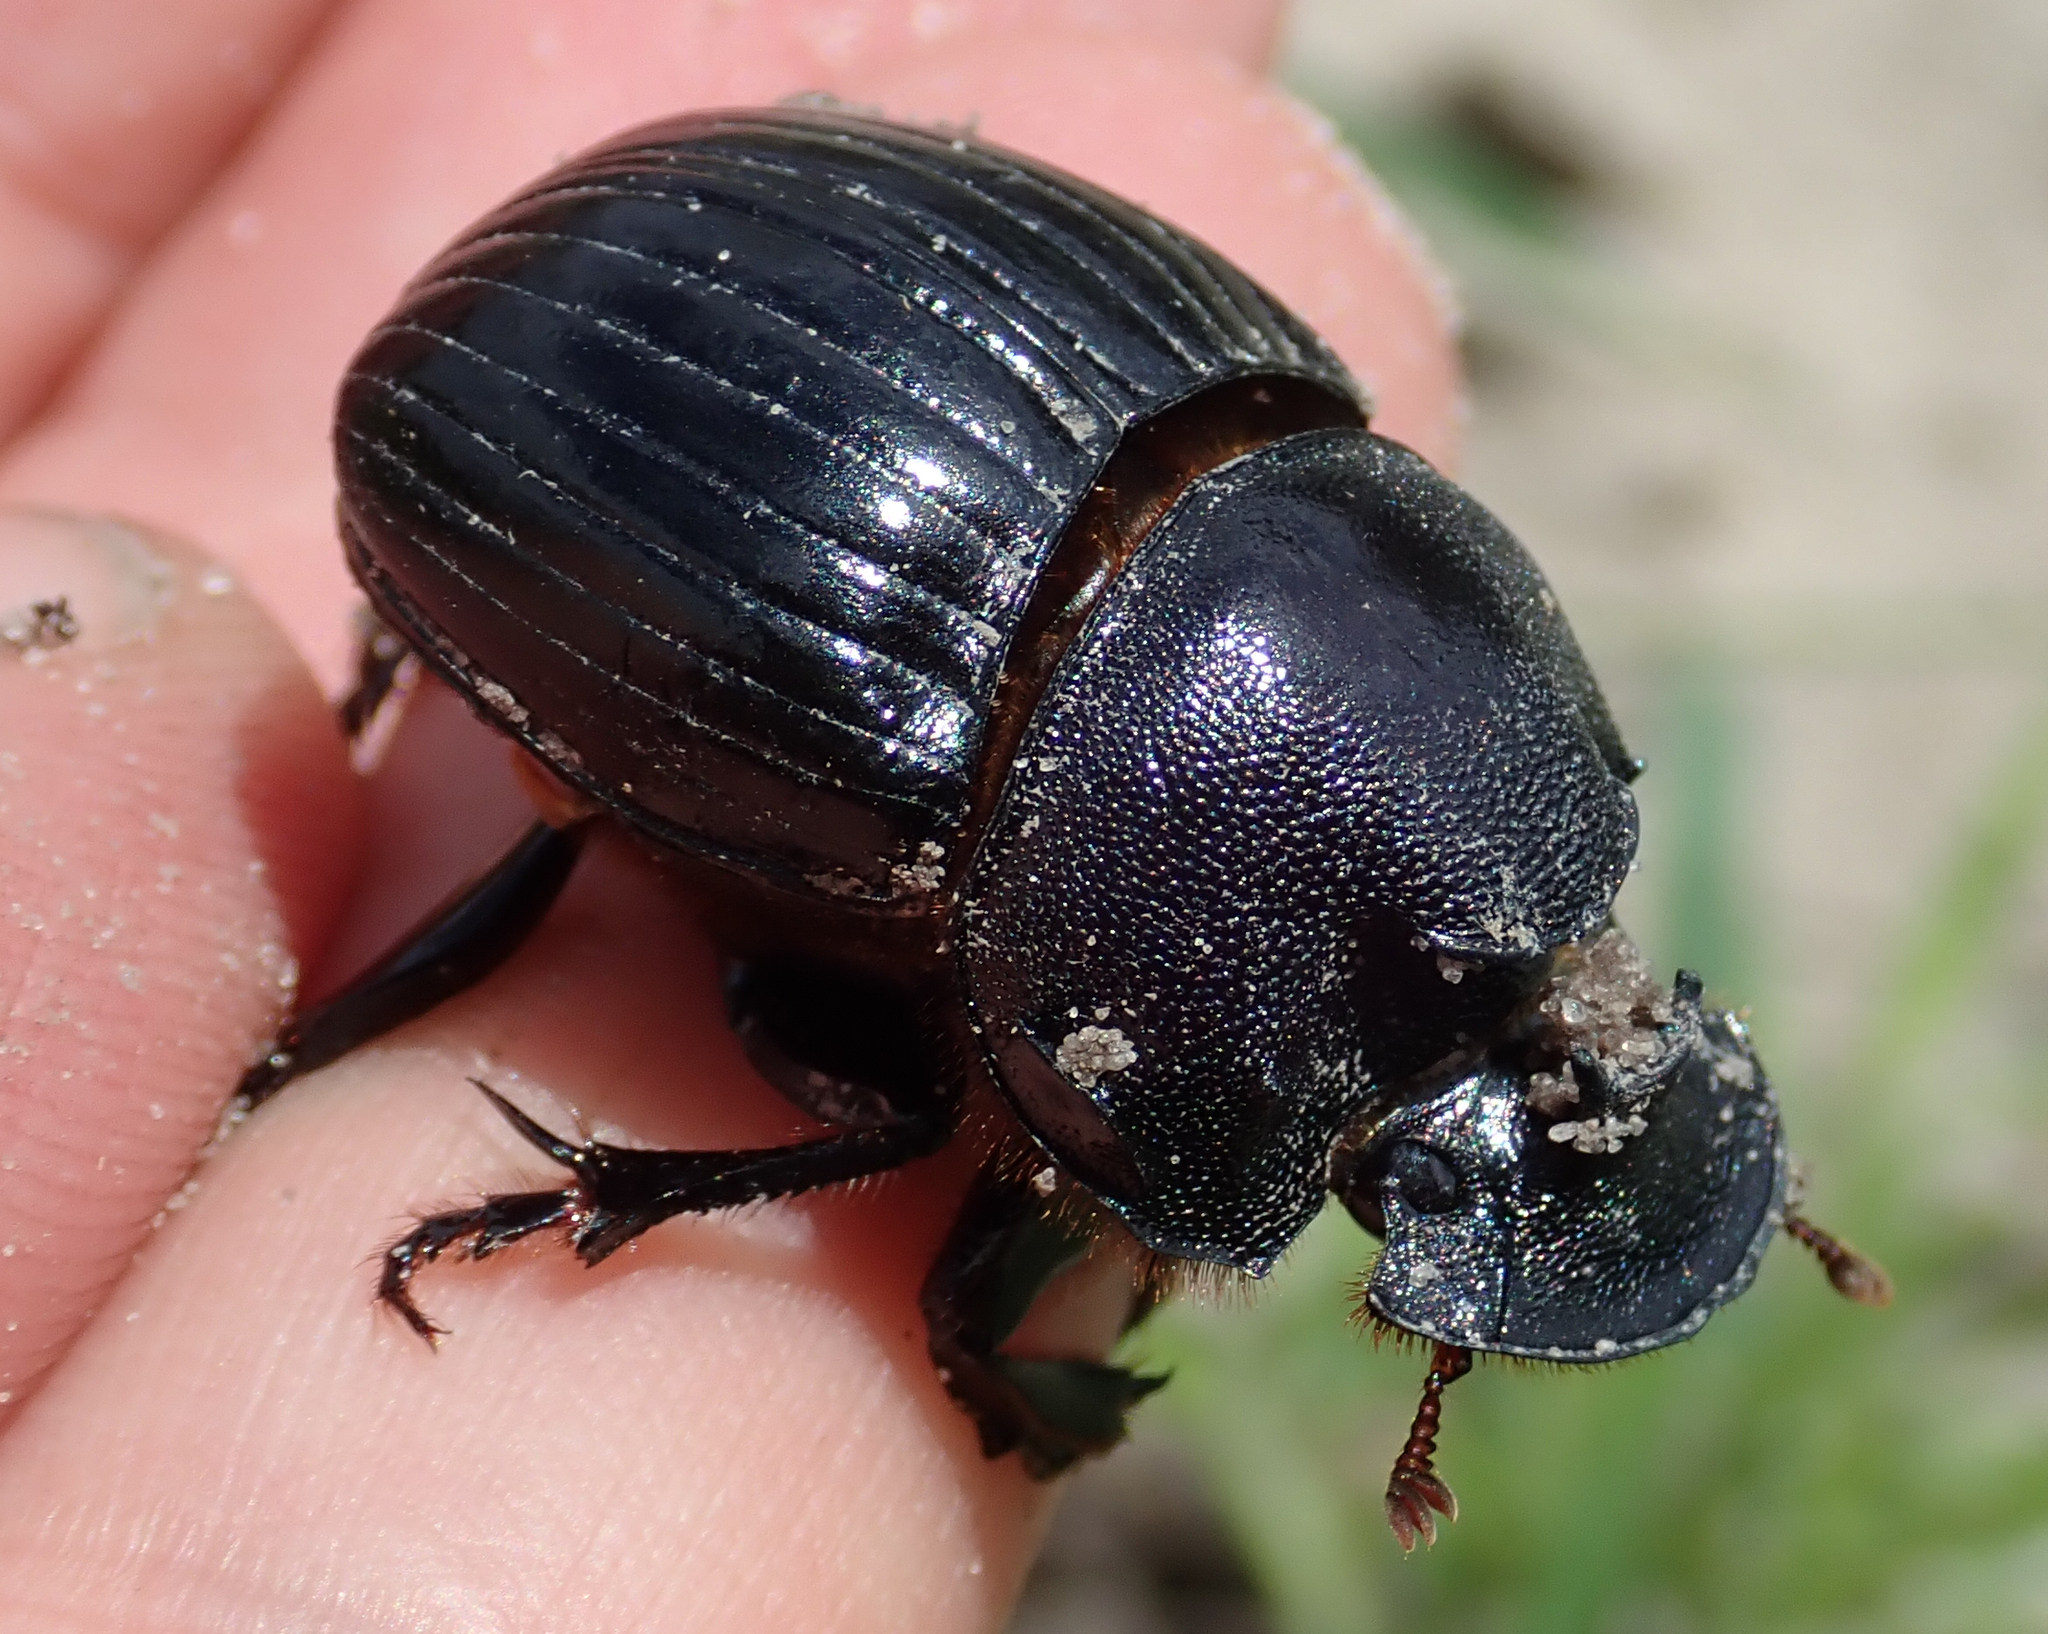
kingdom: Animalia
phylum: Arthropoda
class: Insecta
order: Coleoptera
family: Scarabaeidae
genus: Copris
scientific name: Copris elphenor
